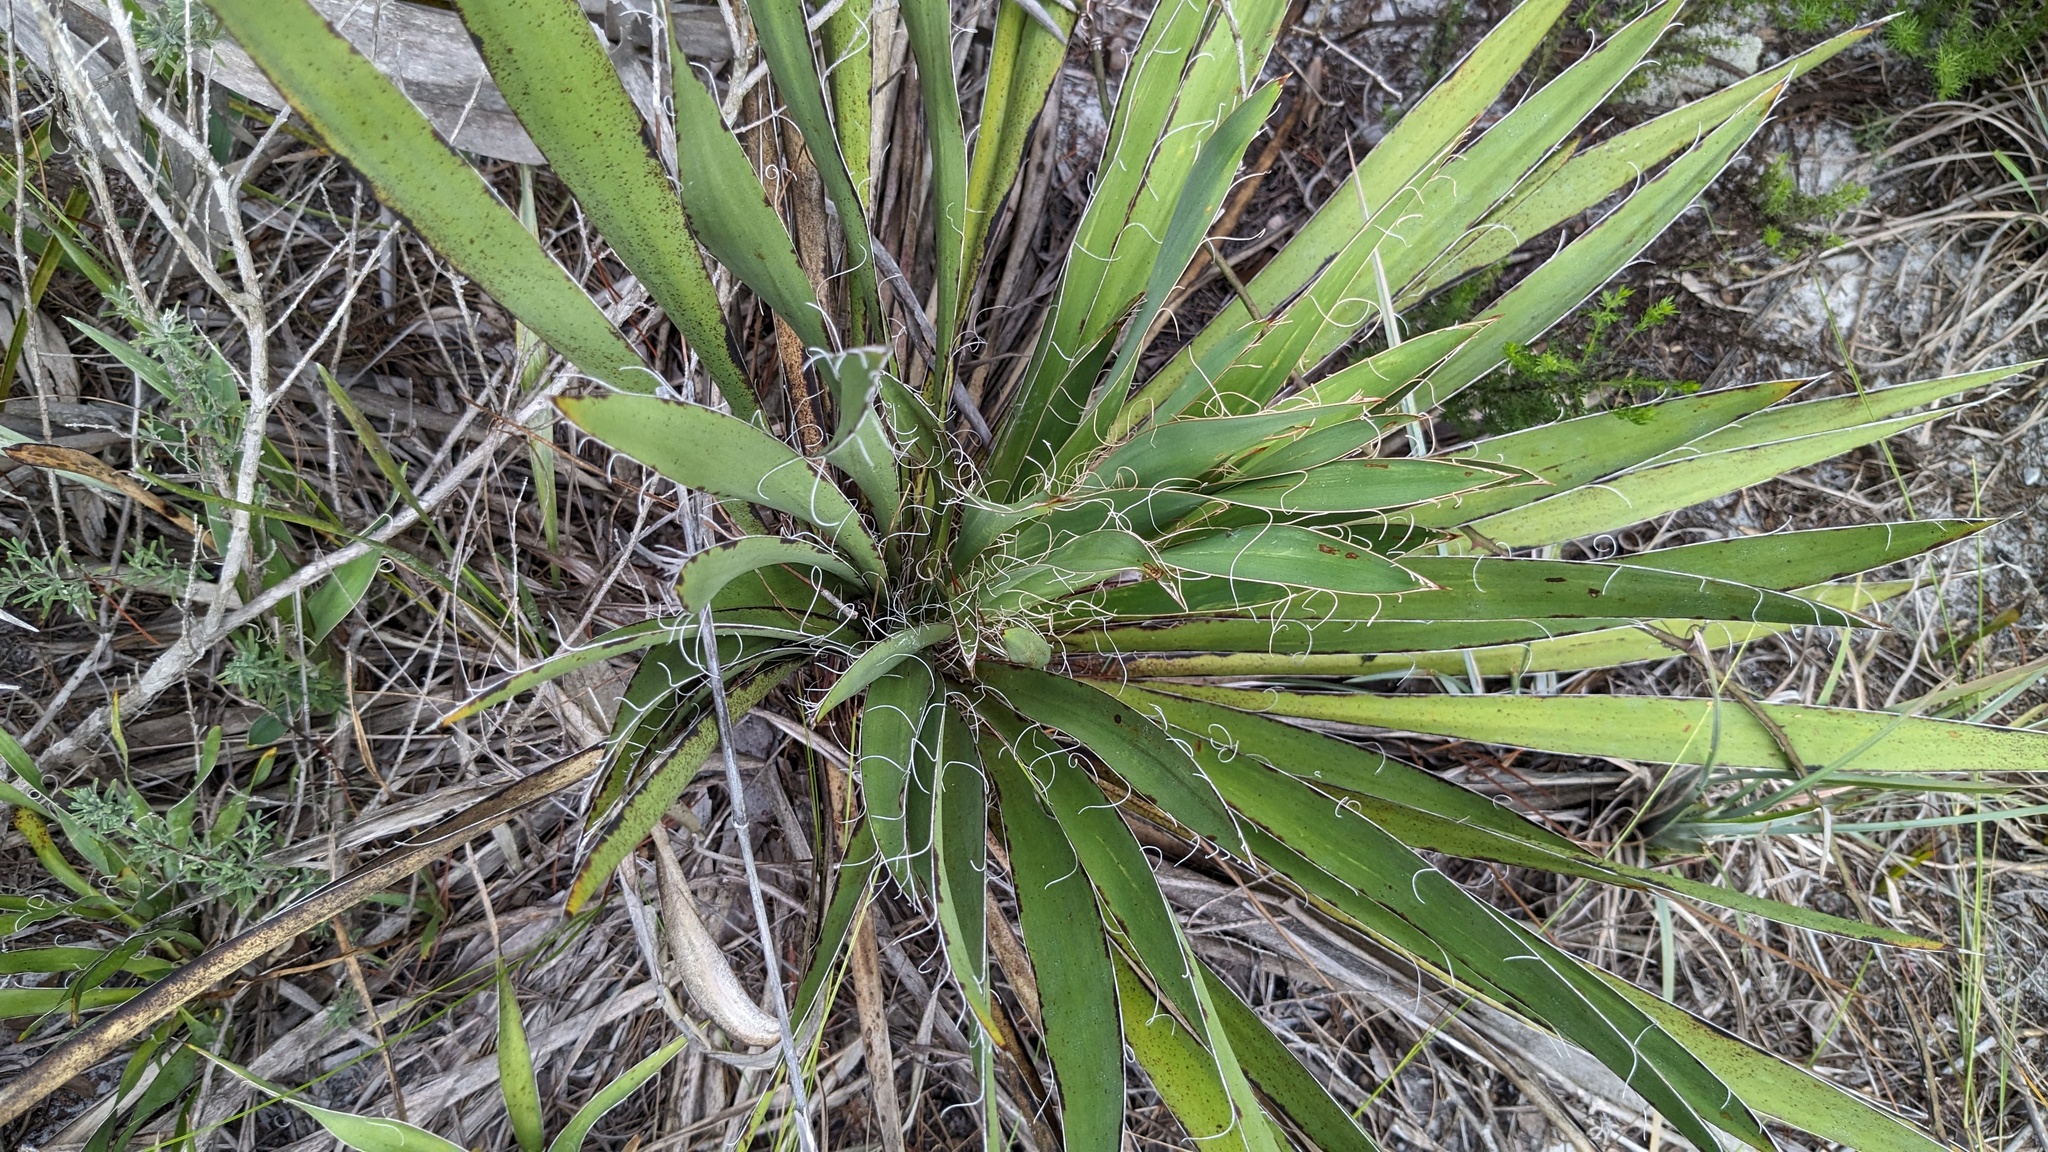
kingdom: Plantae
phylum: Tracheophyta
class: Liliopsida
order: Asparagales
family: Asparagaceae
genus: Yucca
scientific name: Yucca filamentosa
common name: Adam's-needle
